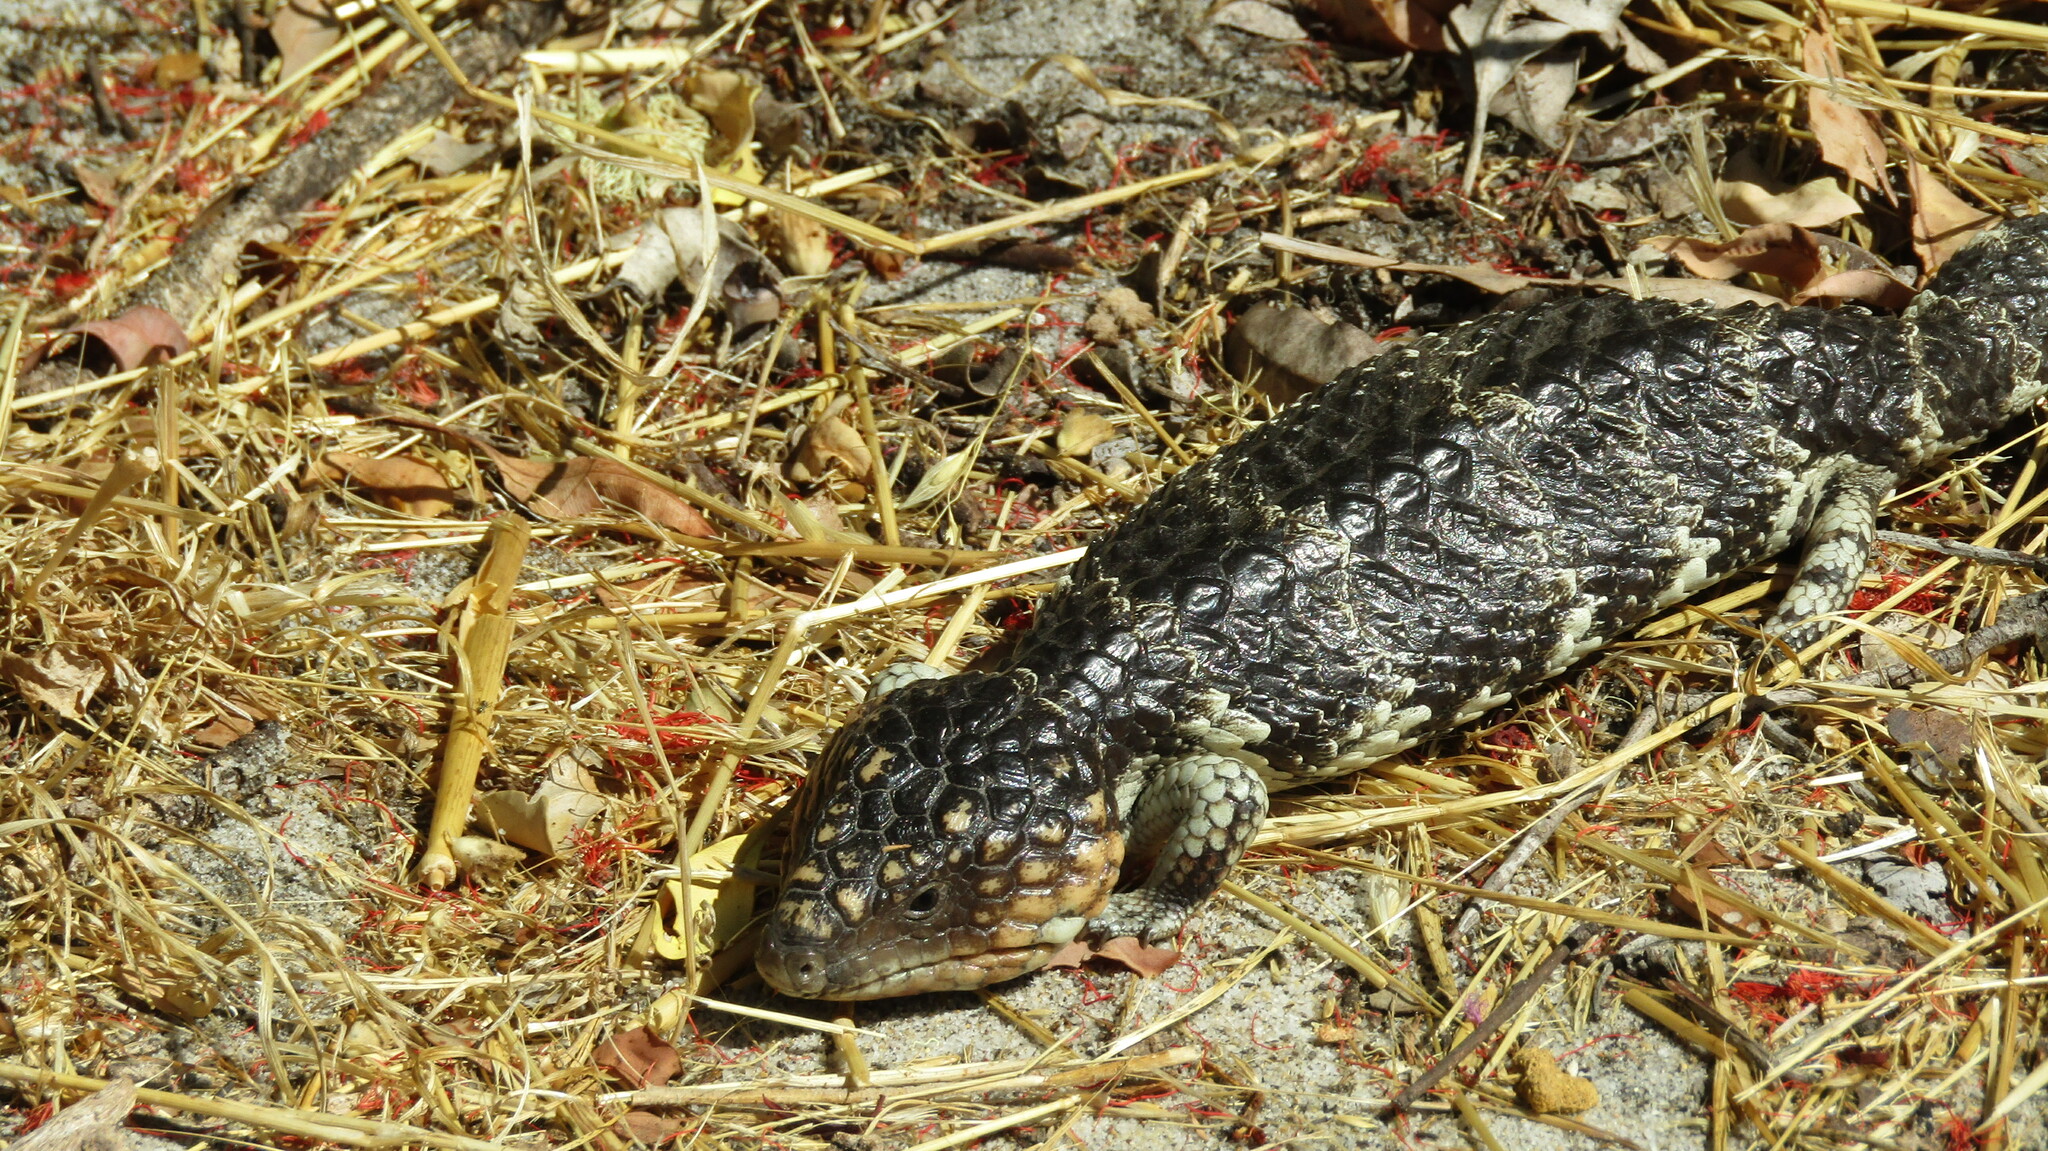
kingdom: Animalia
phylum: Chordata
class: Squamata
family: Scincidae
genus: Tiliqua
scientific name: Tiliqua rugosa
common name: Pinecone lizard
